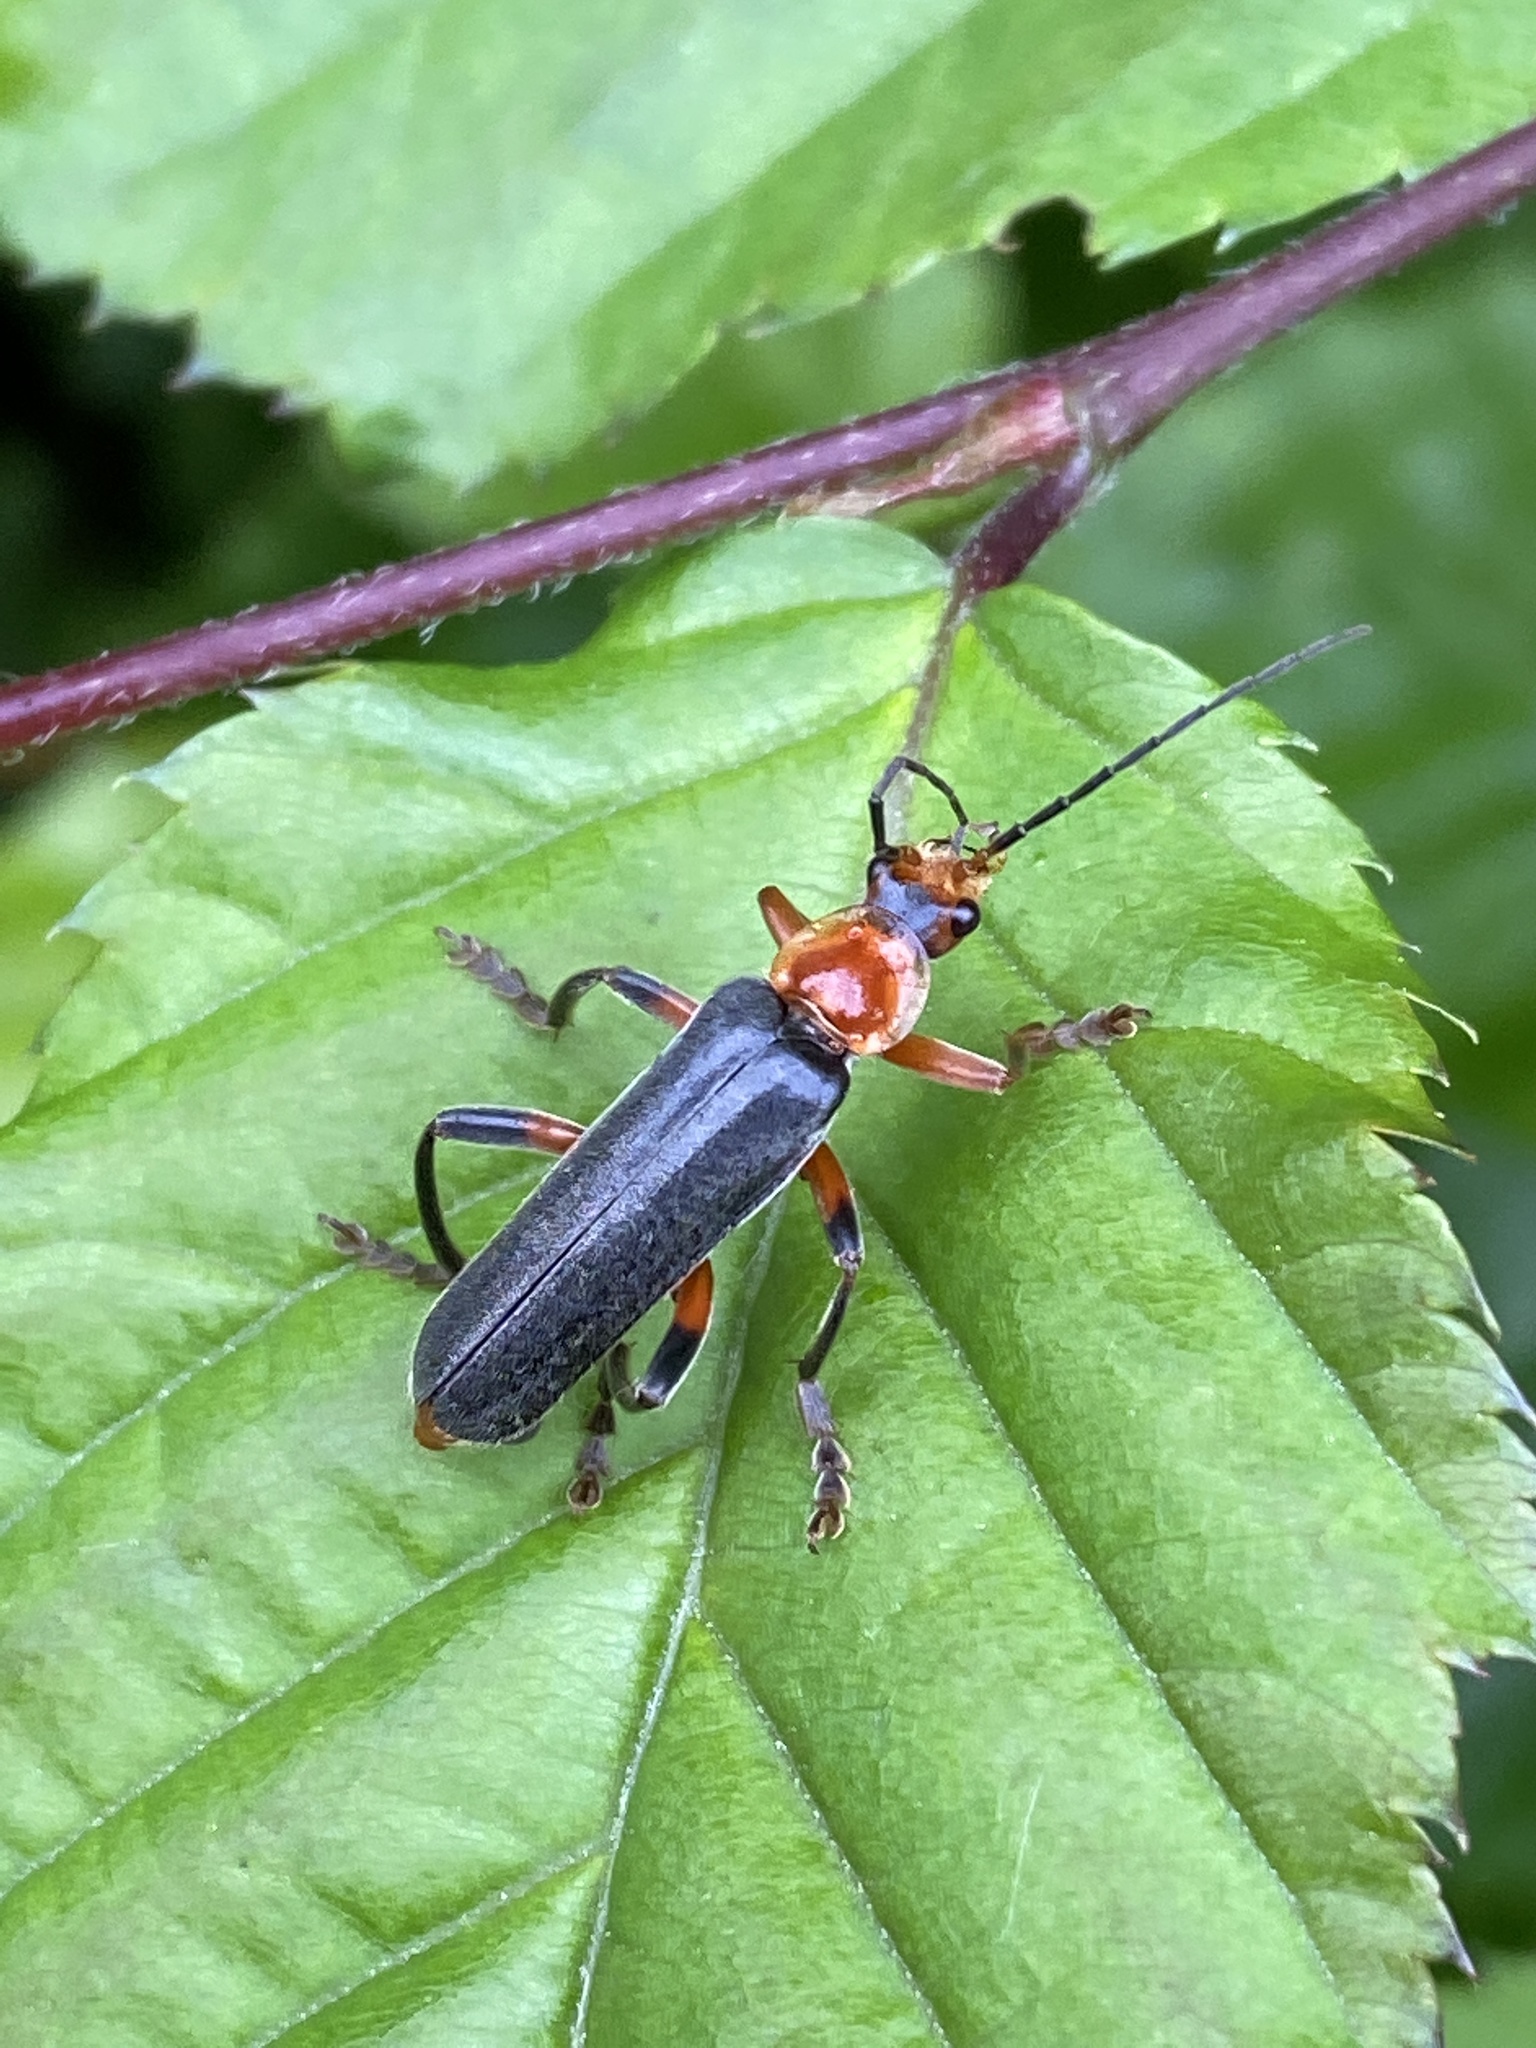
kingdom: Animalia
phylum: Arthropoda
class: Insecta
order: Coleoptera
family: Cantharidae
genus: Cantharis
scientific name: Cantharis livida
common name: Livid soldier beetle
